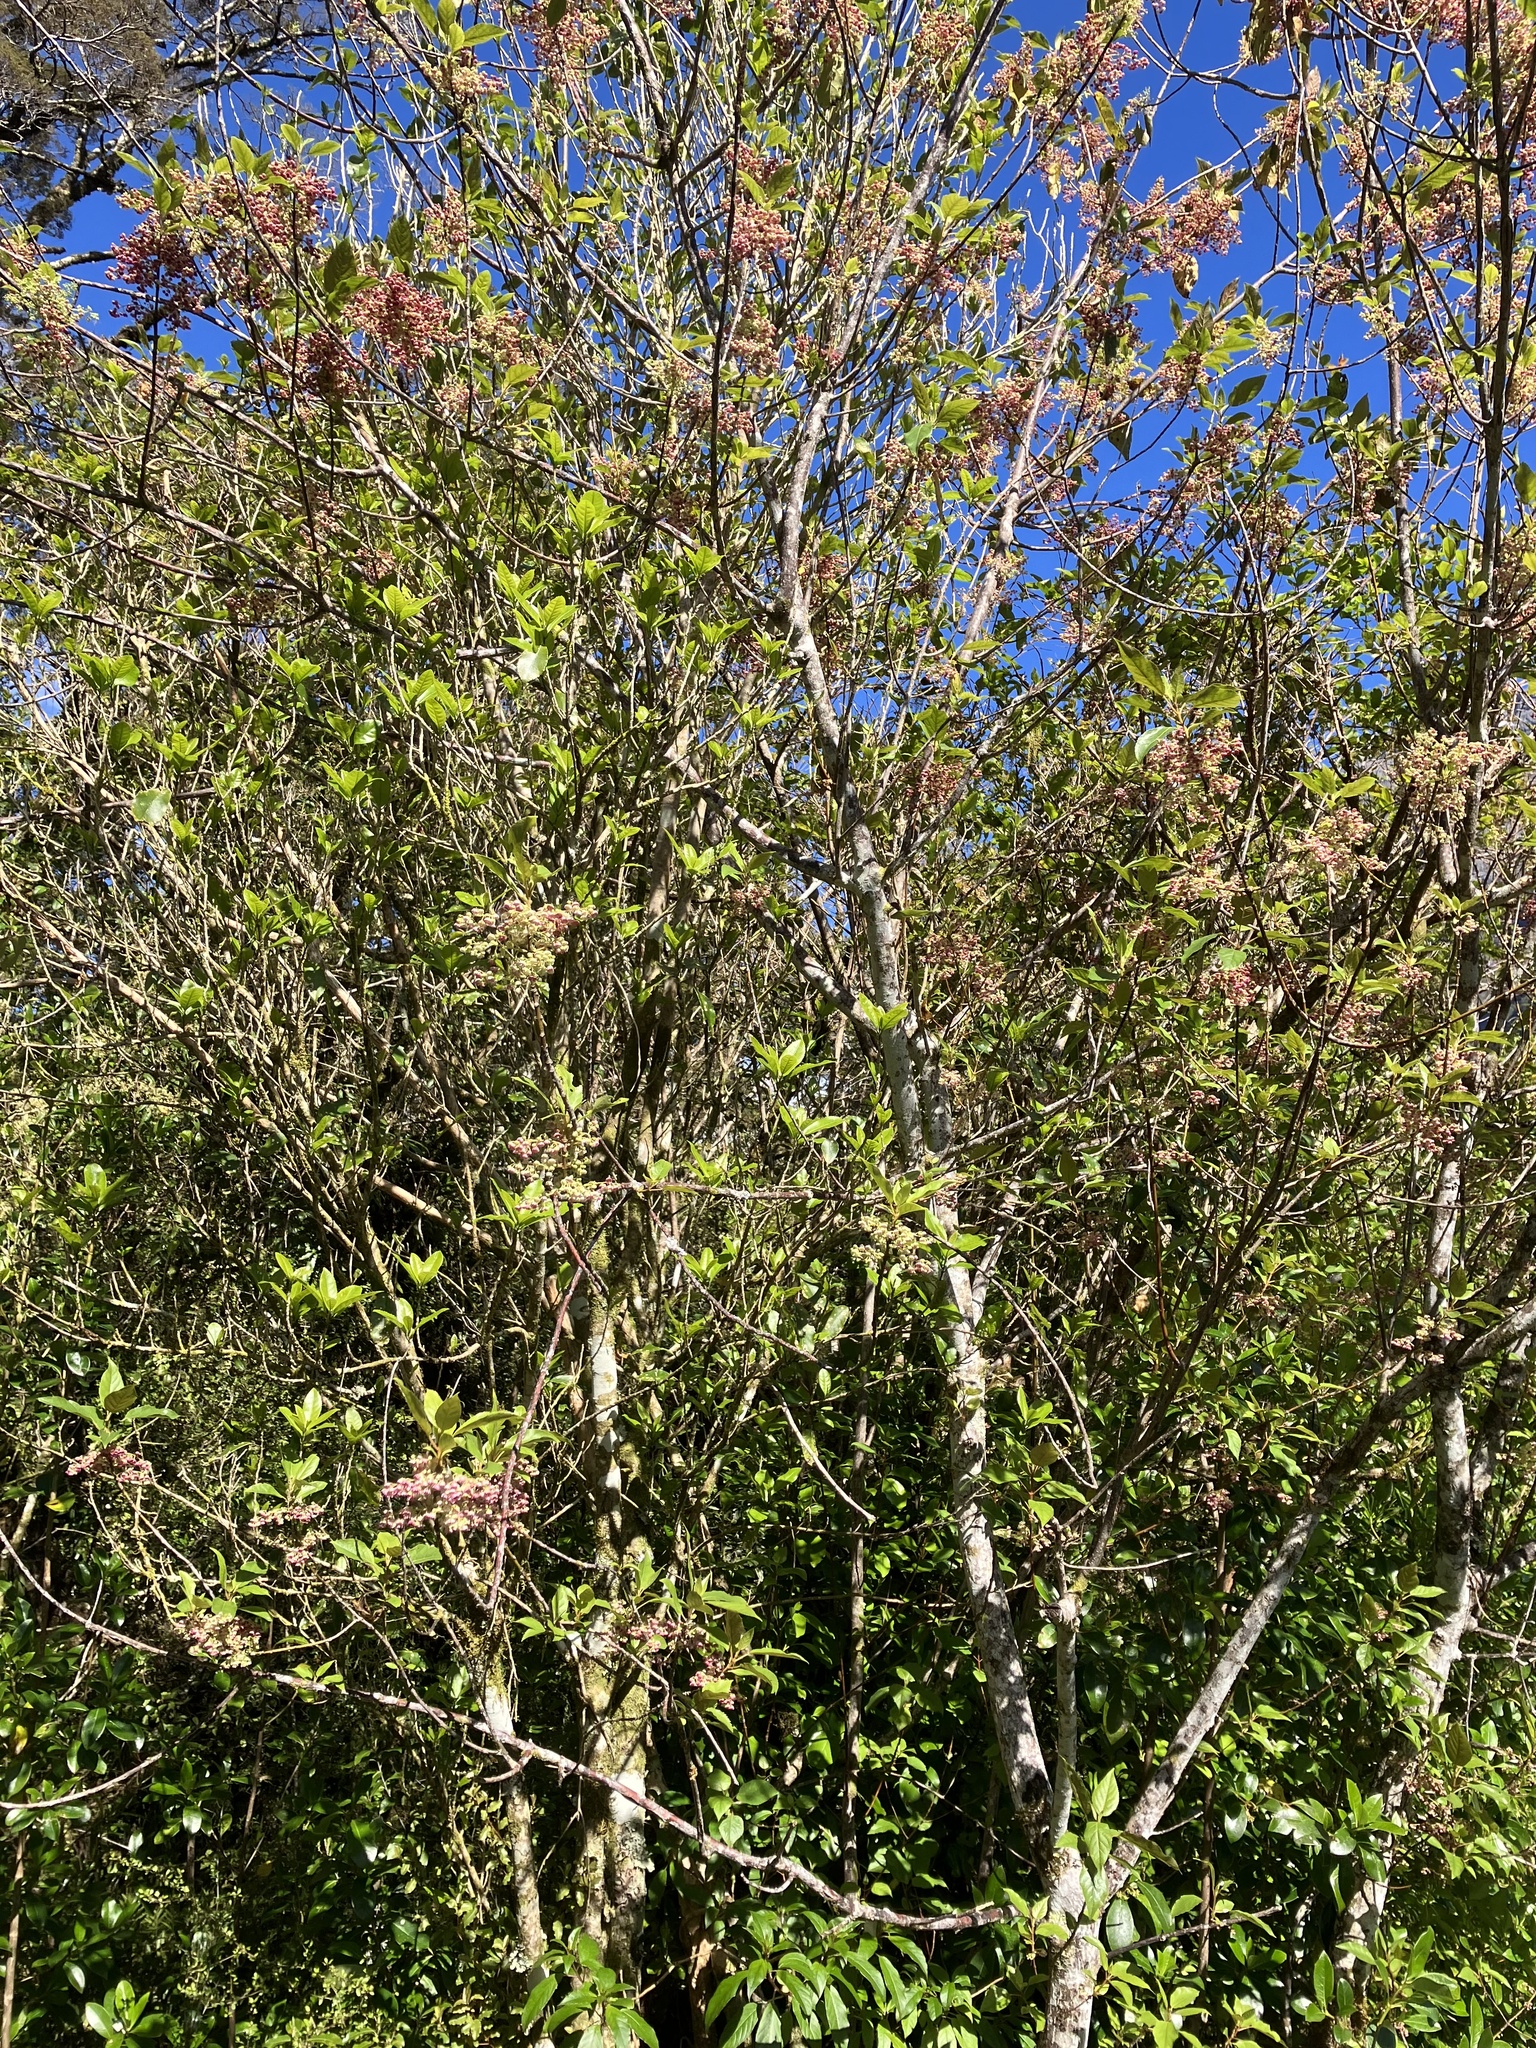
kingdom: Plantae
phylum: Tracheophyta
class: Magnoliopsida
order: Oxalidales
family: Elaeocarpaceae
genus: Aristotelia
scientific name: Aristotelia serrata
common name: New zealand wineberry
